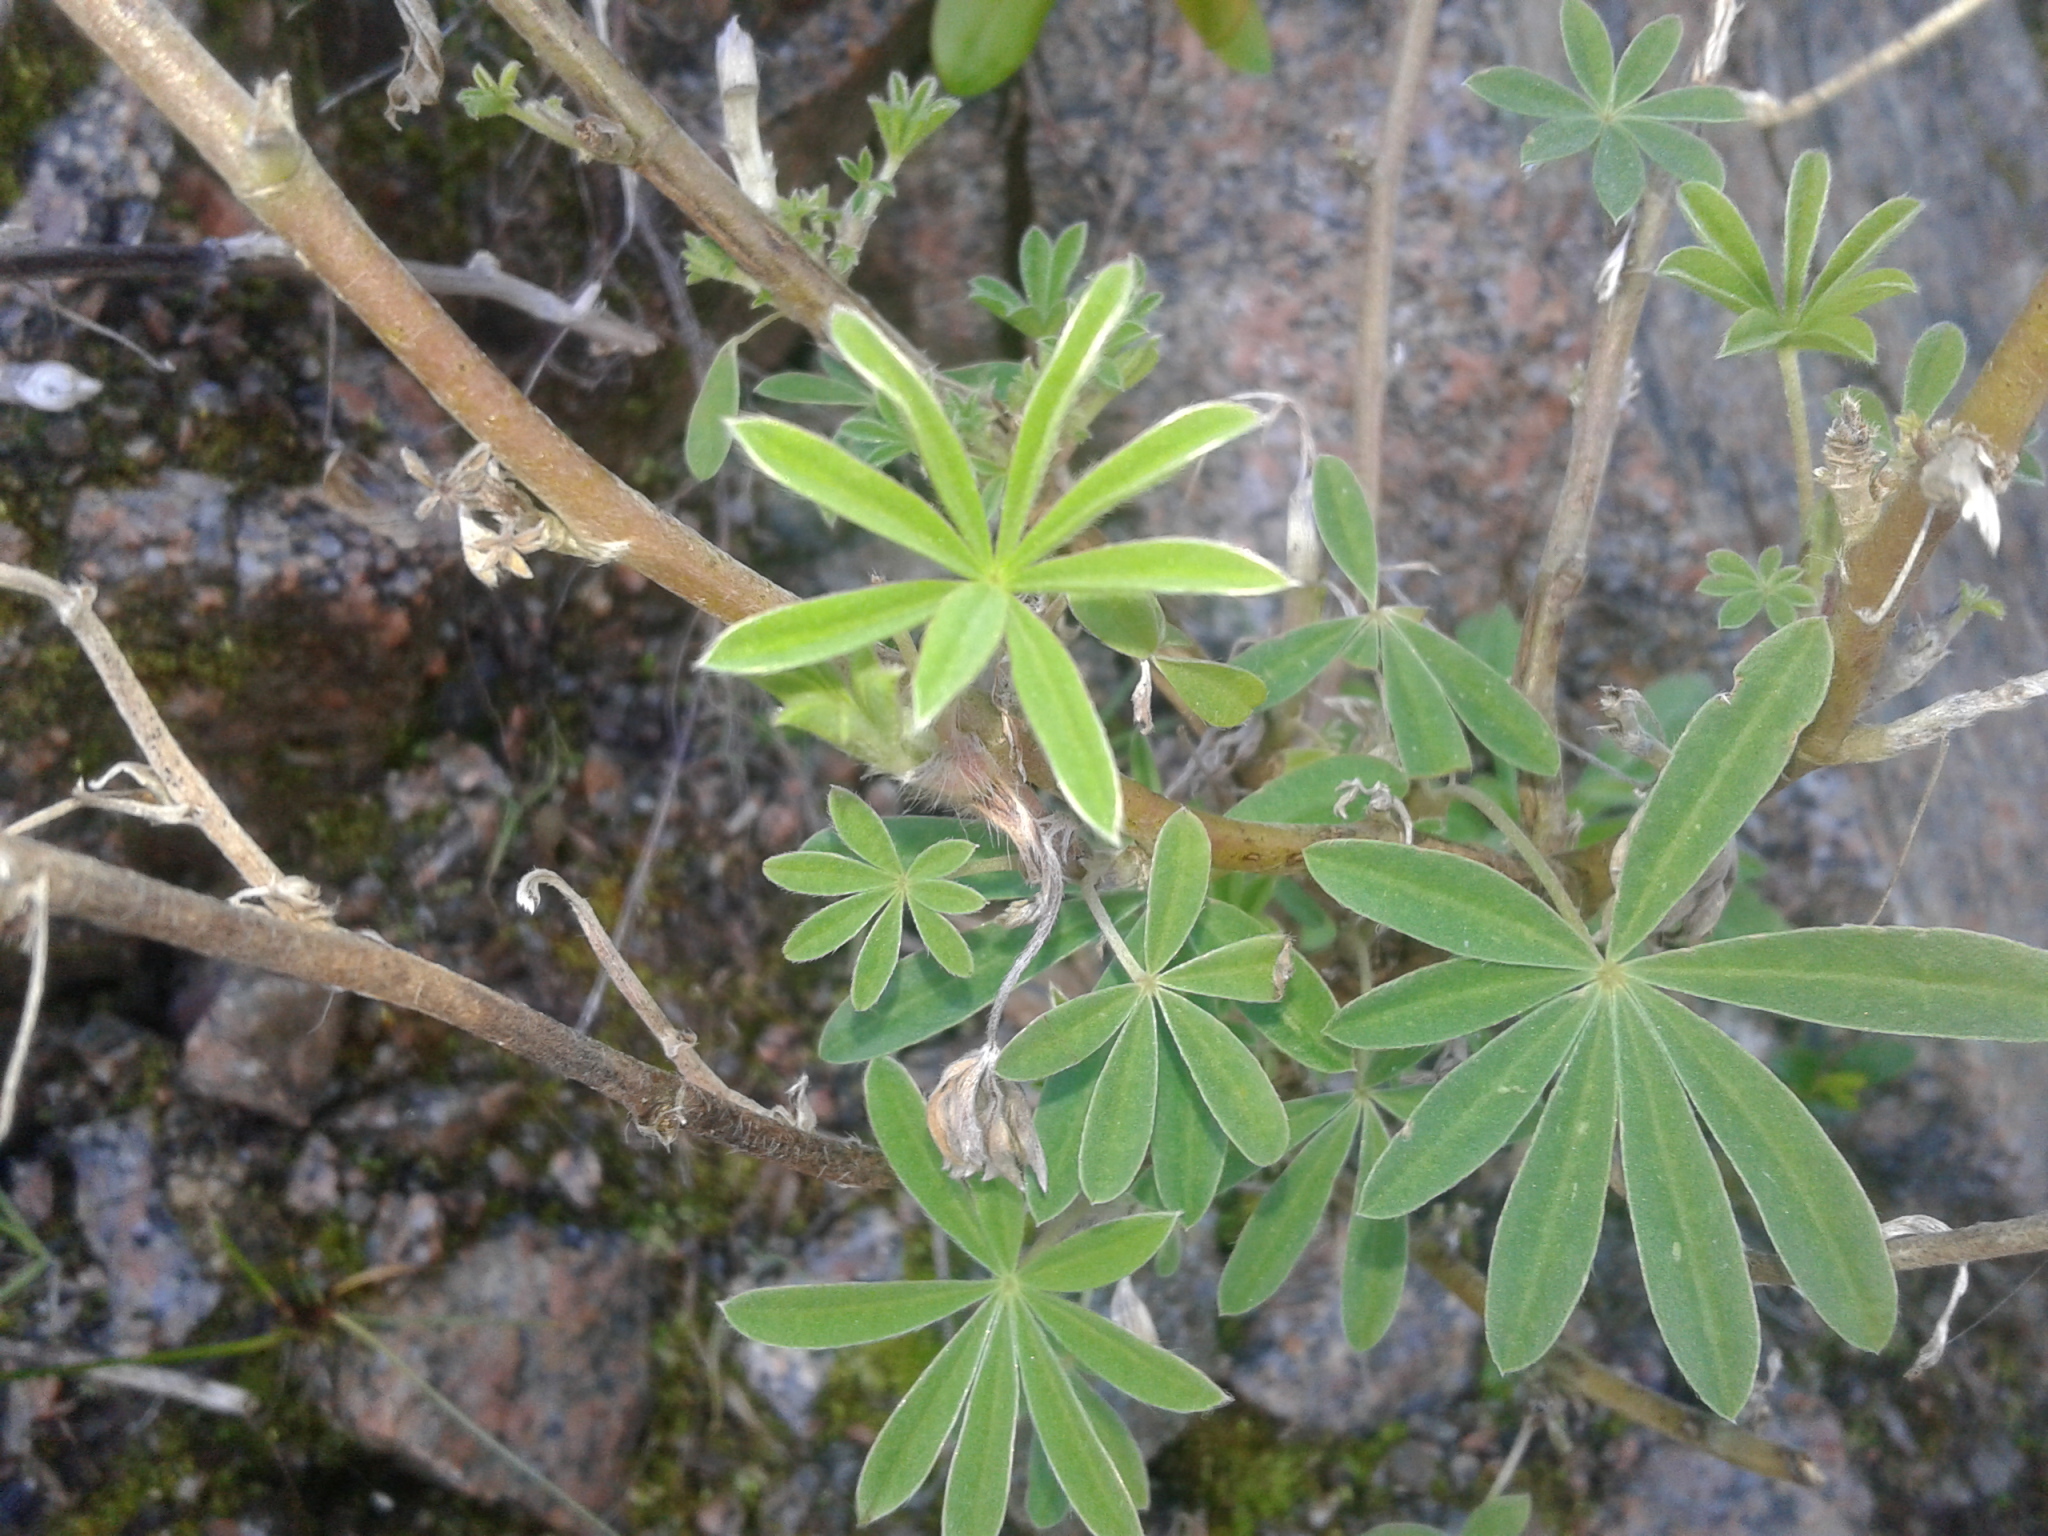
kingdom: Plantae
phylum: Tracheophyta
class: Magnoliopsida
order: Fabales
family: Fabaceae
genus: Lupinus
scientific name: Lupinus arboreus
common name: Yellow bush lupine
